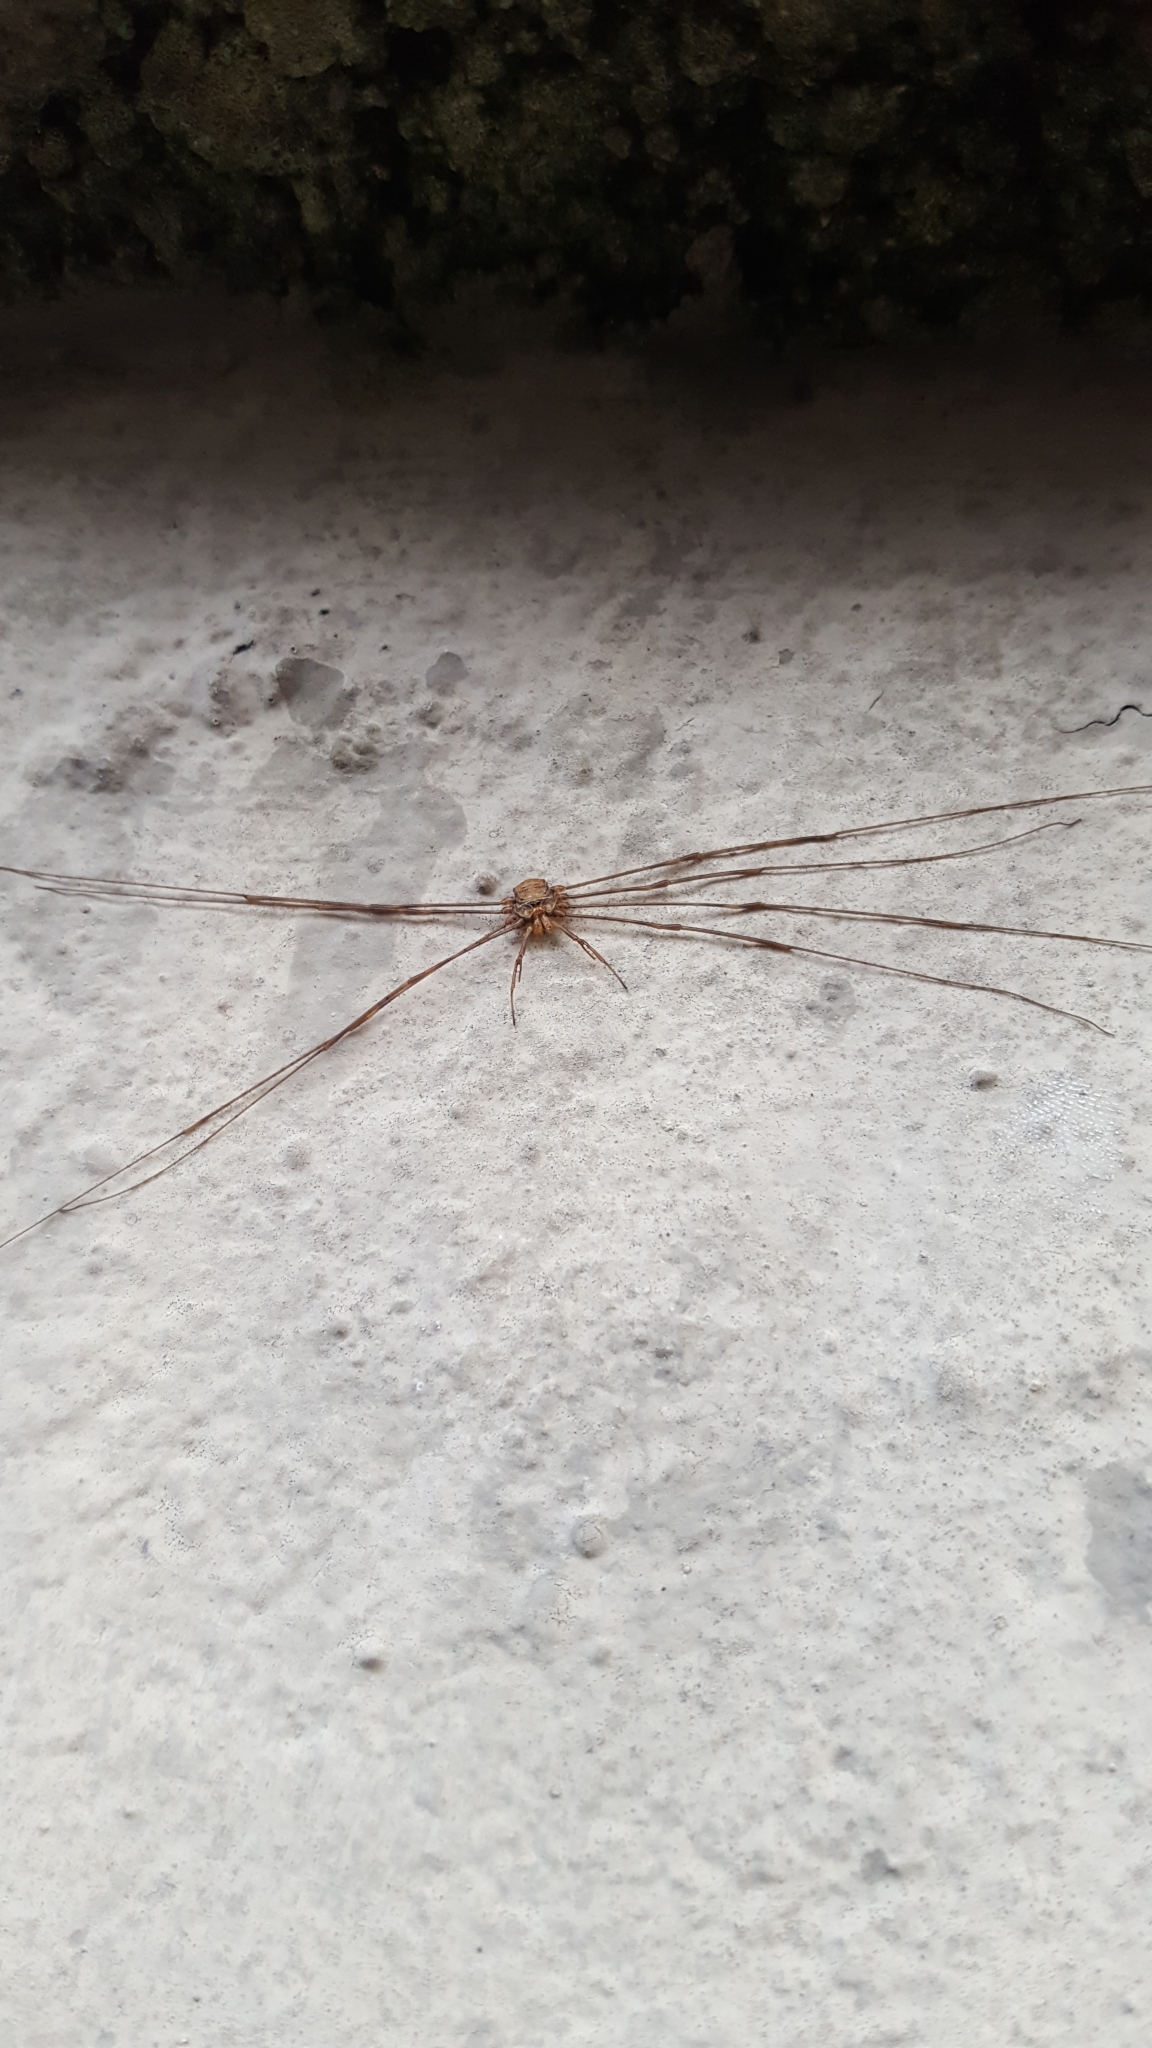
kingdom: Animalia
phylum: Arthropoda
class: Arachnida
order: Opiliones
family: Phalangiidae
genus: Dicranopalpus
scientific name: Dicranopalpus ramosus
